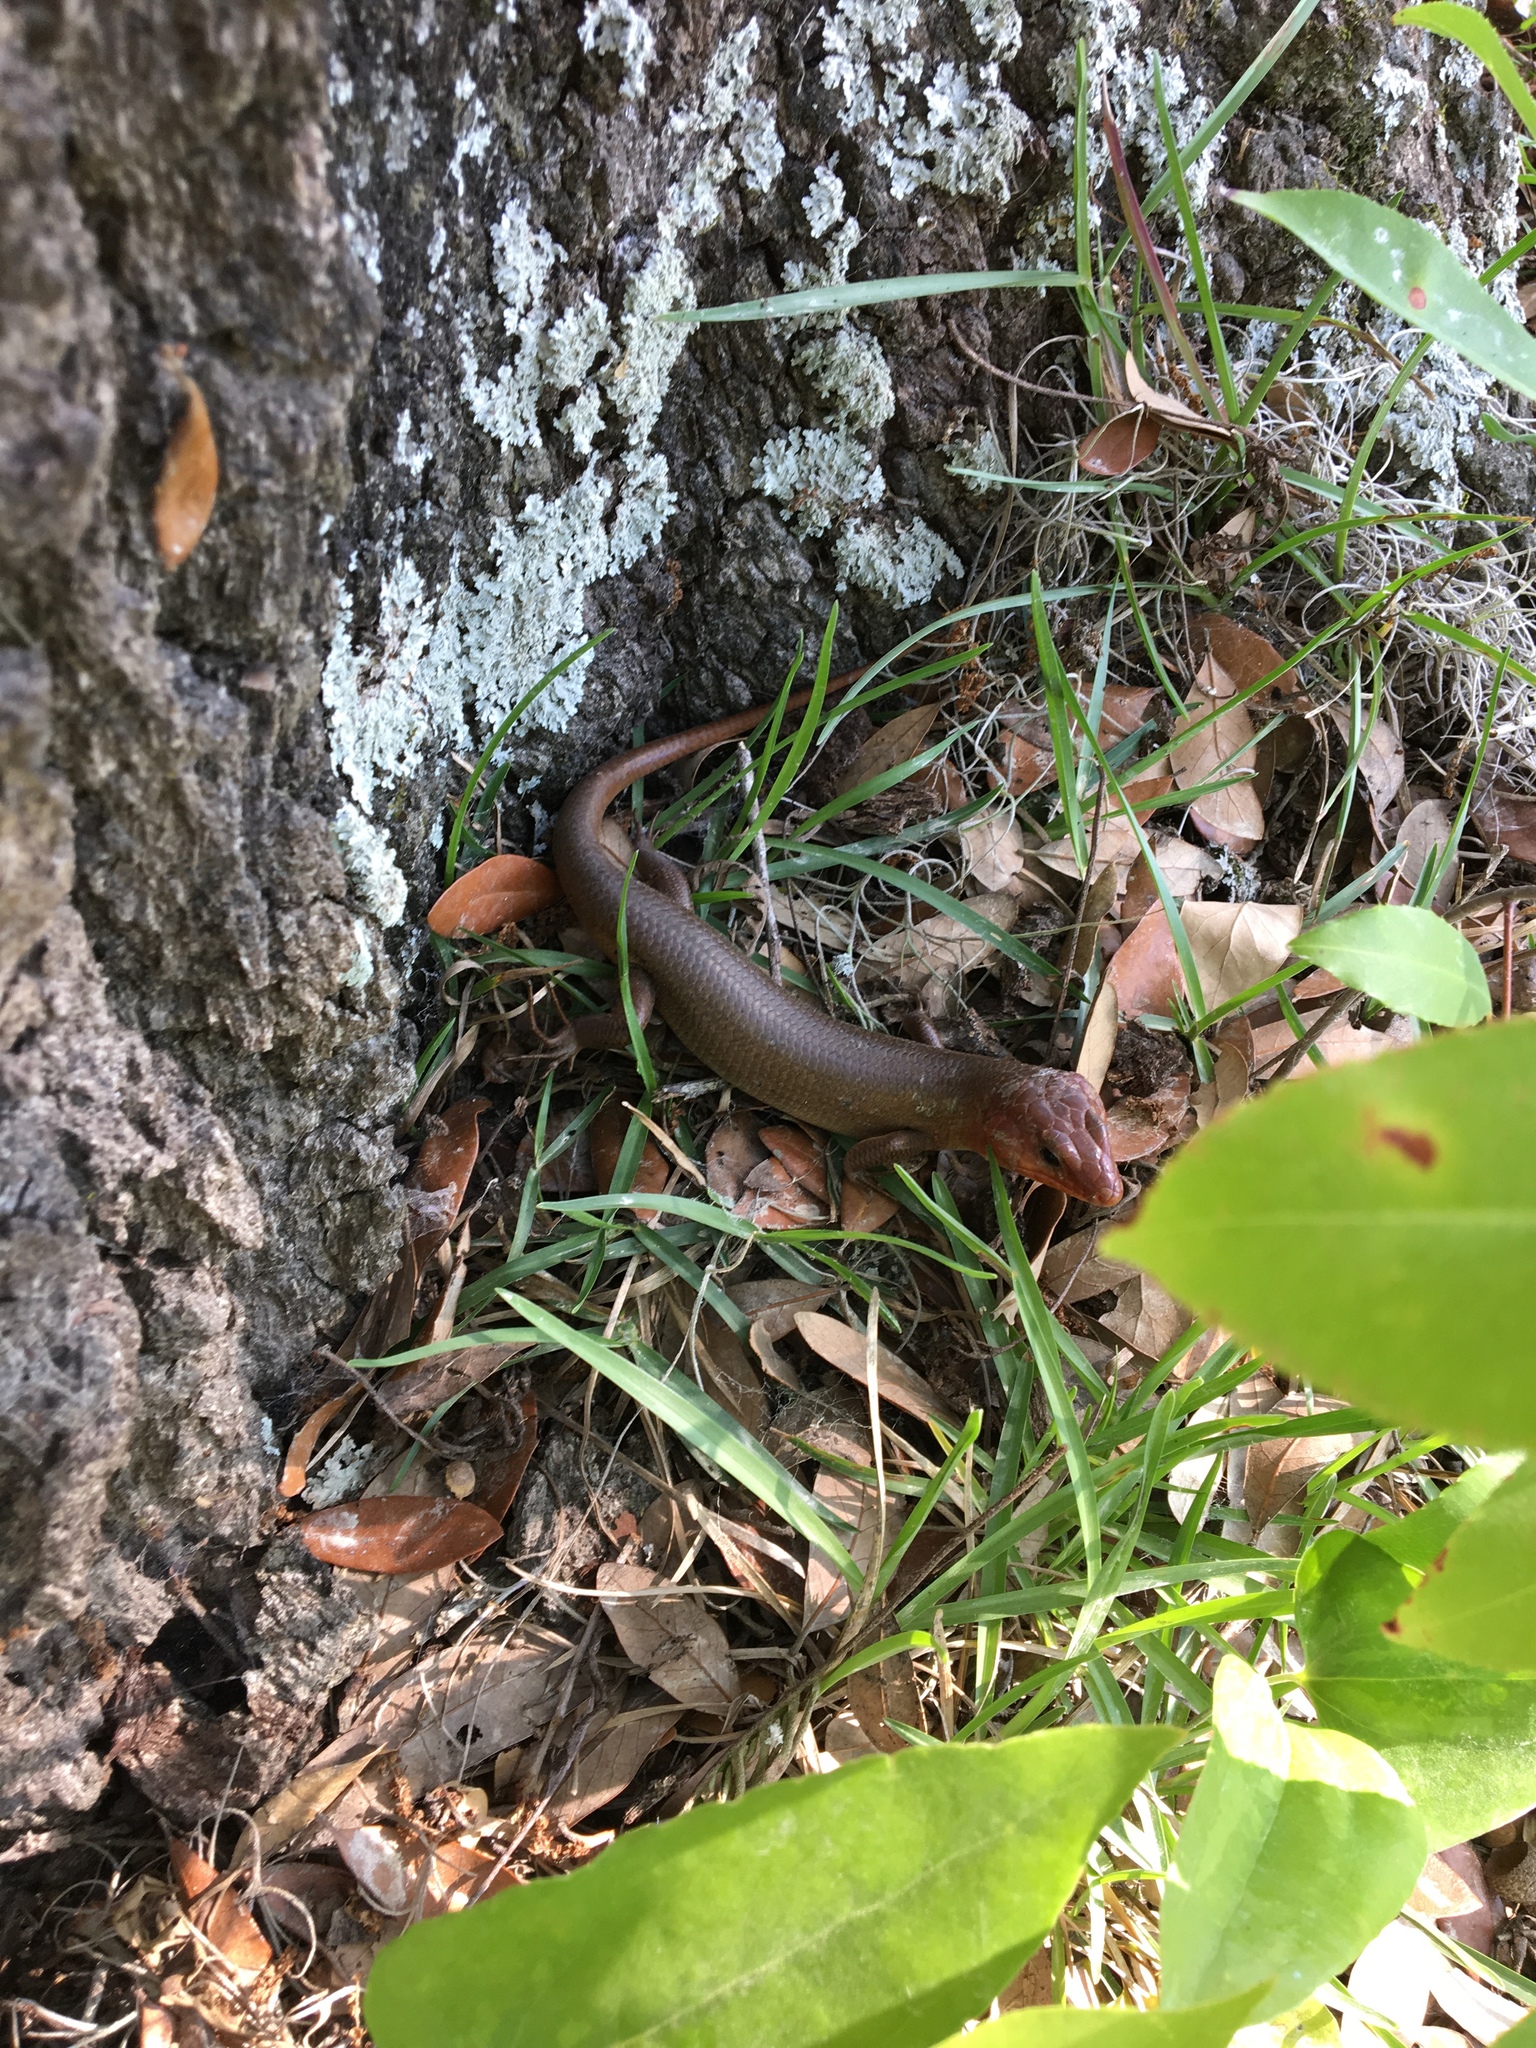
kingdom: Animalia
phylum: Chordata
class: Squamata
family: Scincidae
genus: Plestiodon
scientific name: Plestiodon laticeps
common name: Broadhead skink
